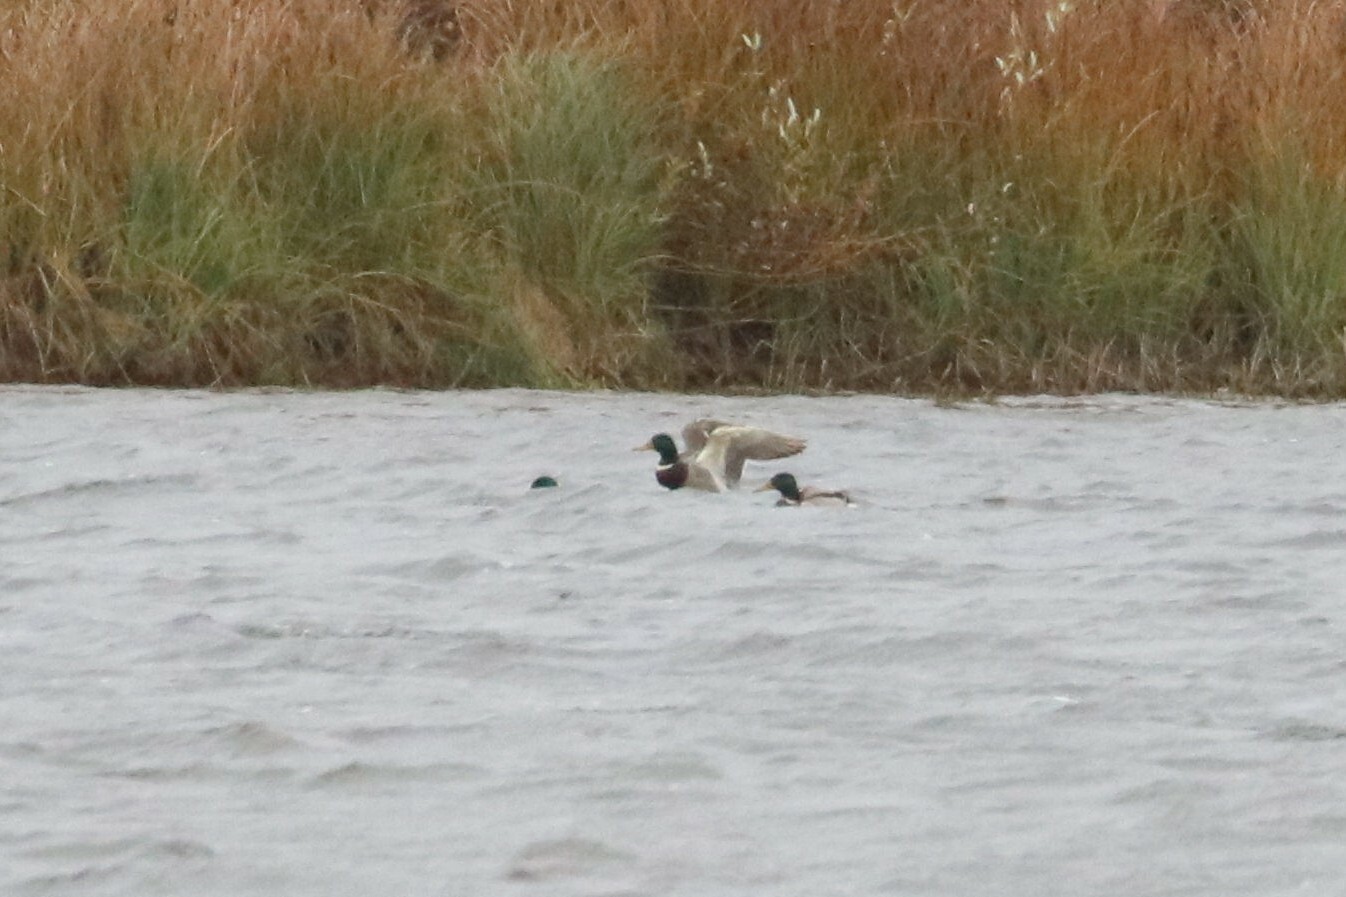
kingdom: Animalia
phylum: Chordata
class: Aves
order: Anseriformes
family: Anatidae
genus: Anas
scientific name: Anas platyrhynchos
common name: Mallard
